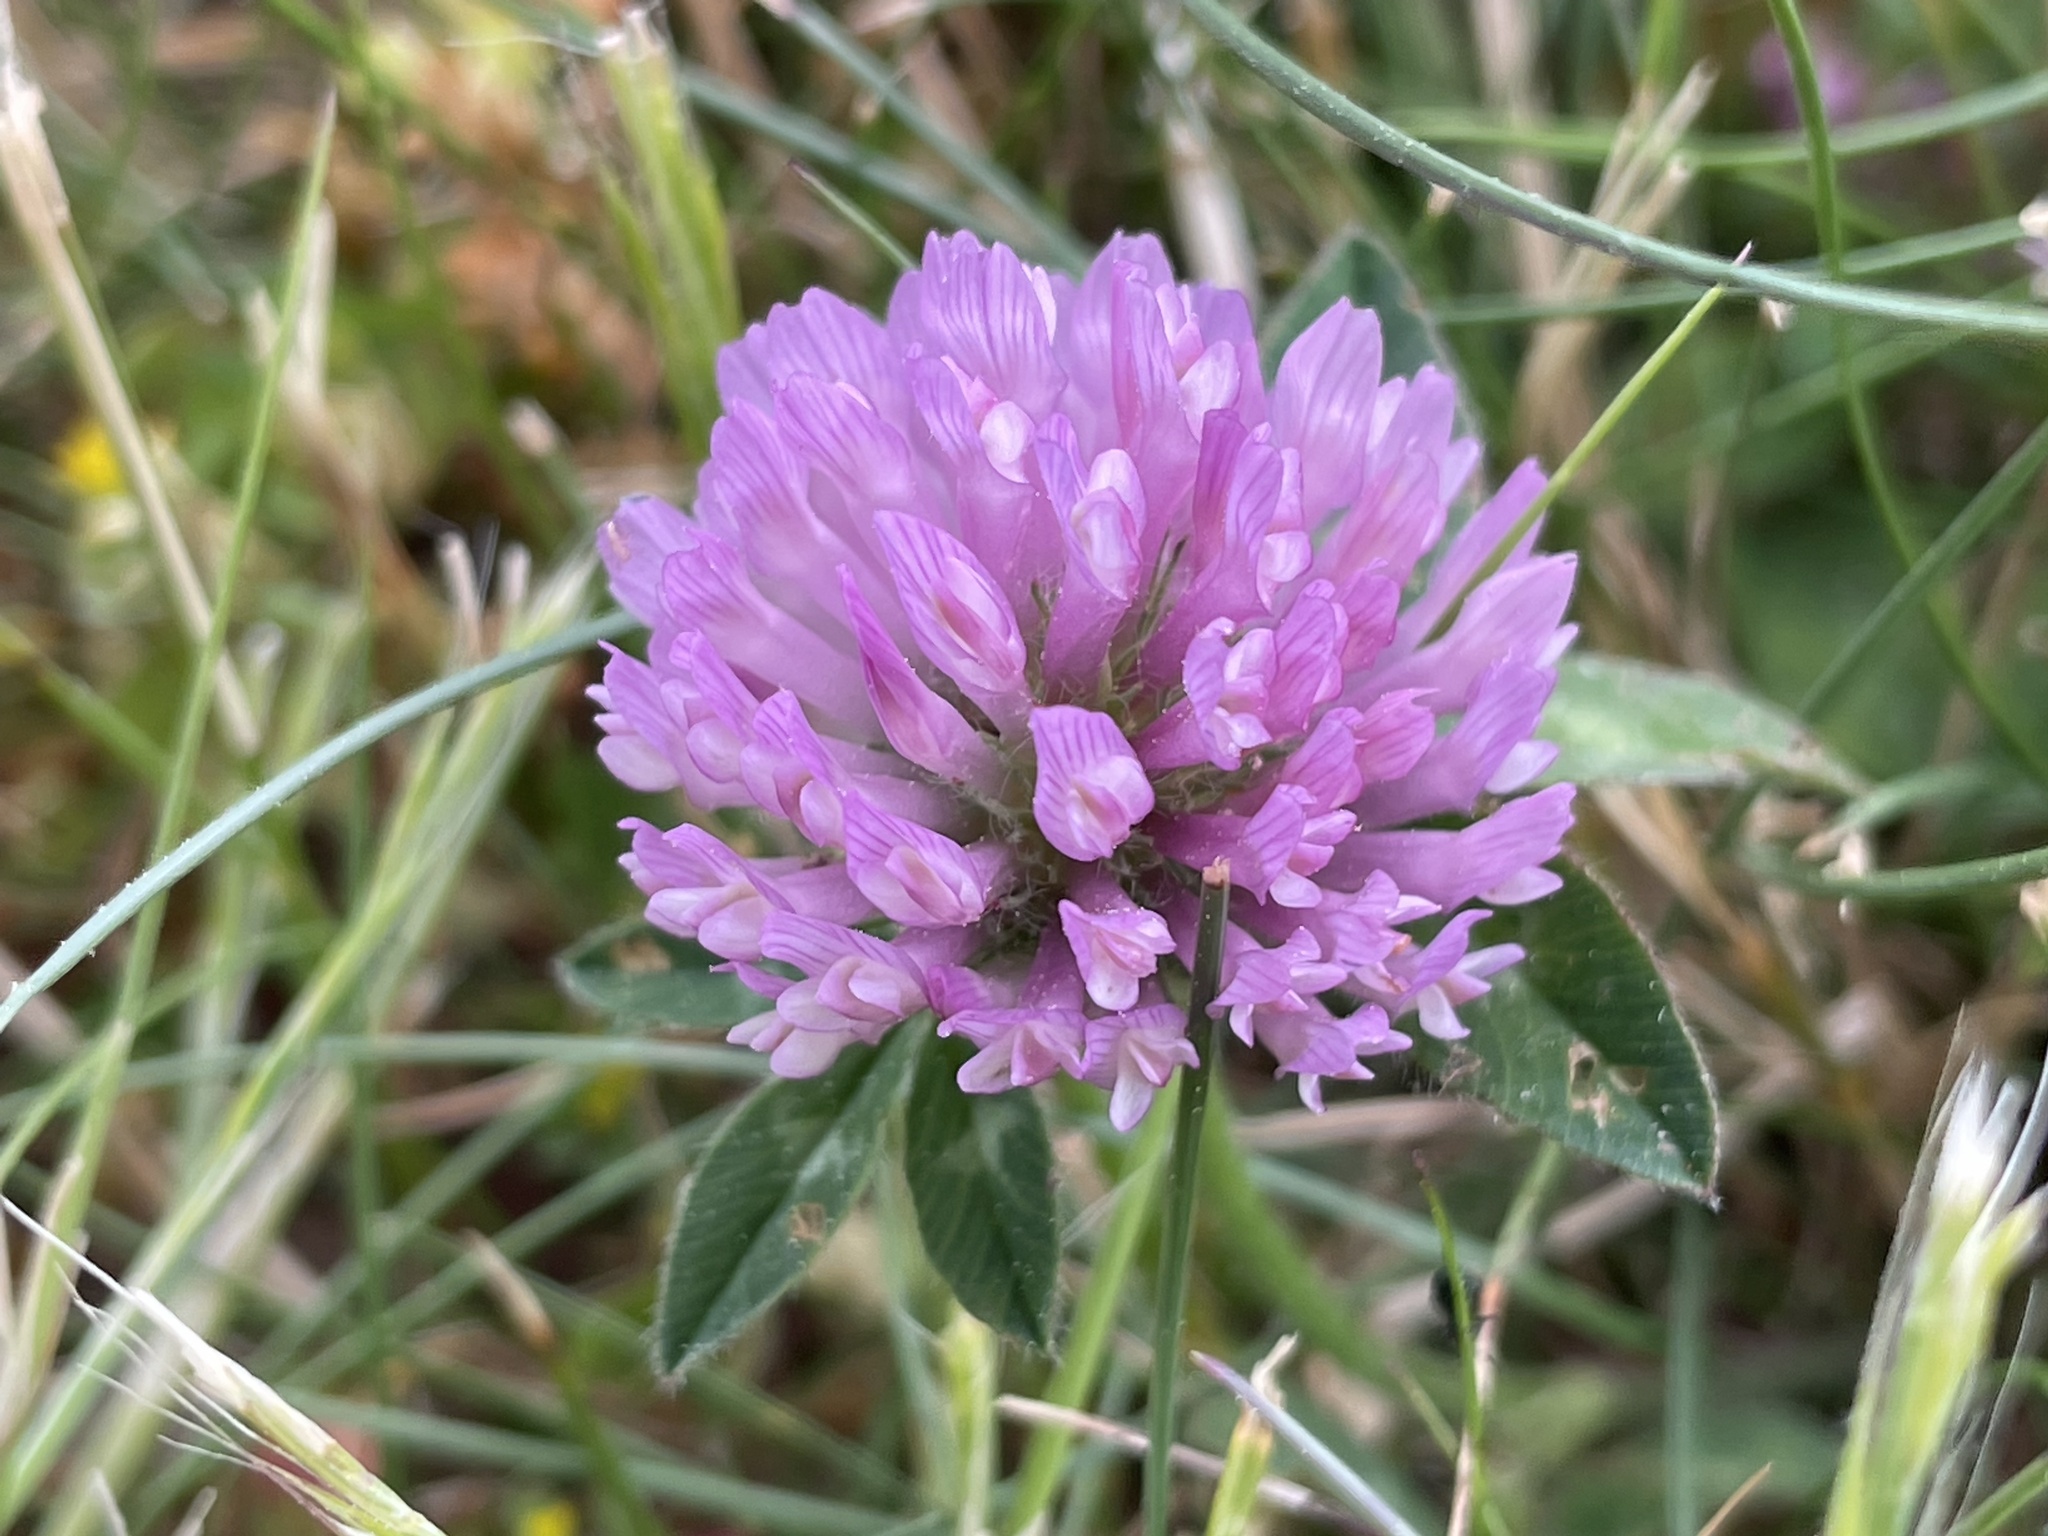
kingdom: Plantae
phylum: Tracheophyta
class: Magnoliopsida
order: Fabales
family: Fabaceae
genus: Trifolium
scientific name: Trifolium pratense
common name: Red clover
